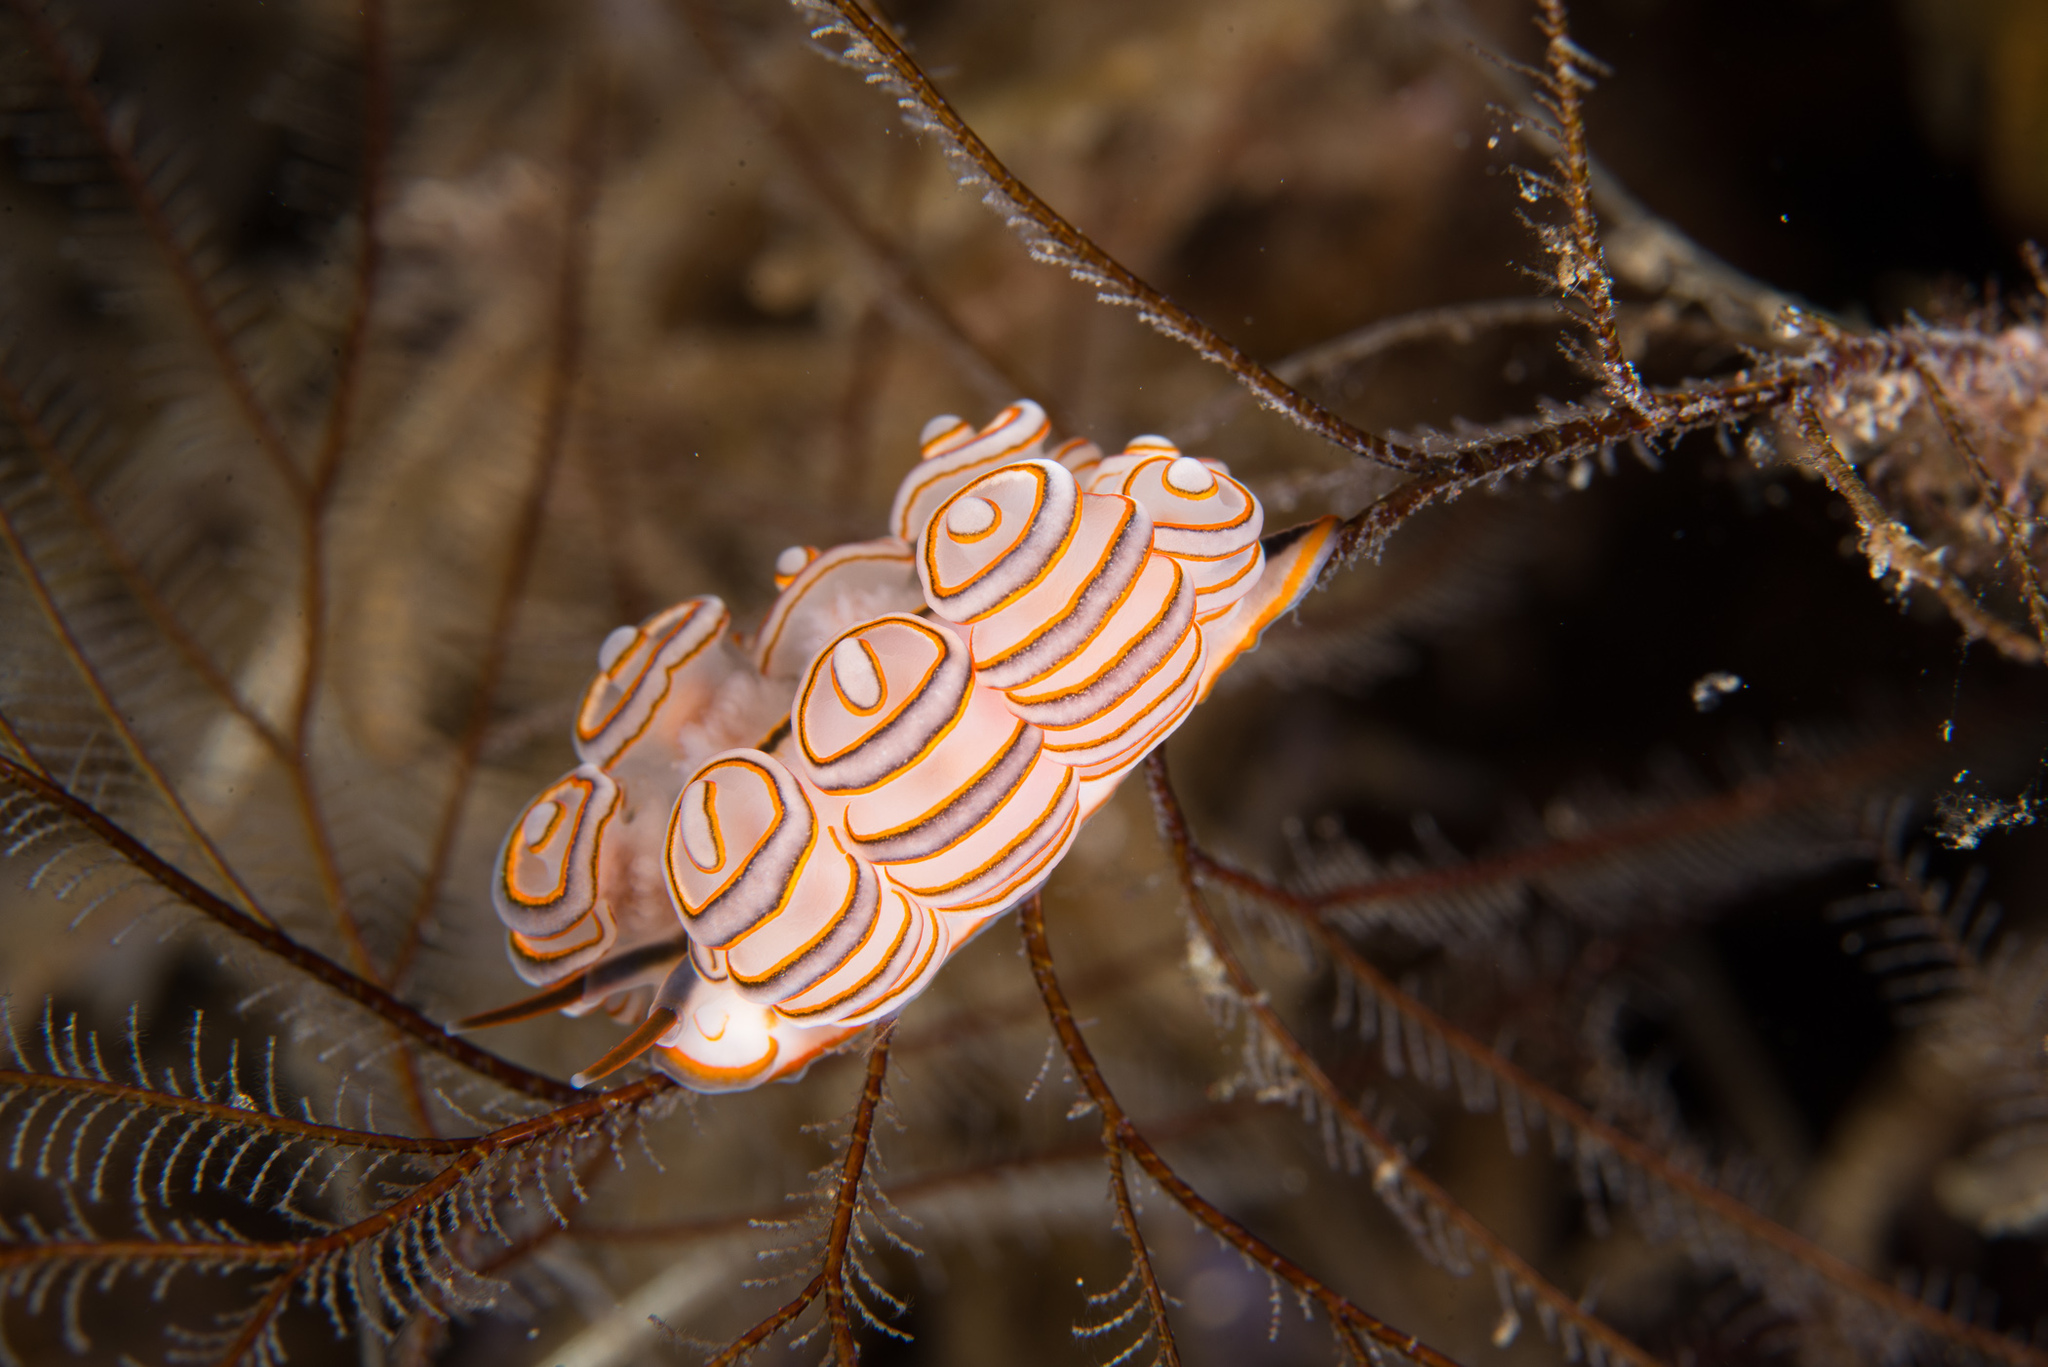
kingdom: Animalia
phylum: Mollusca
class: Gastropoda
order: Nudibranchia
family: Dotidae
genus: Doto
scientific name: Doto greenamyeri
